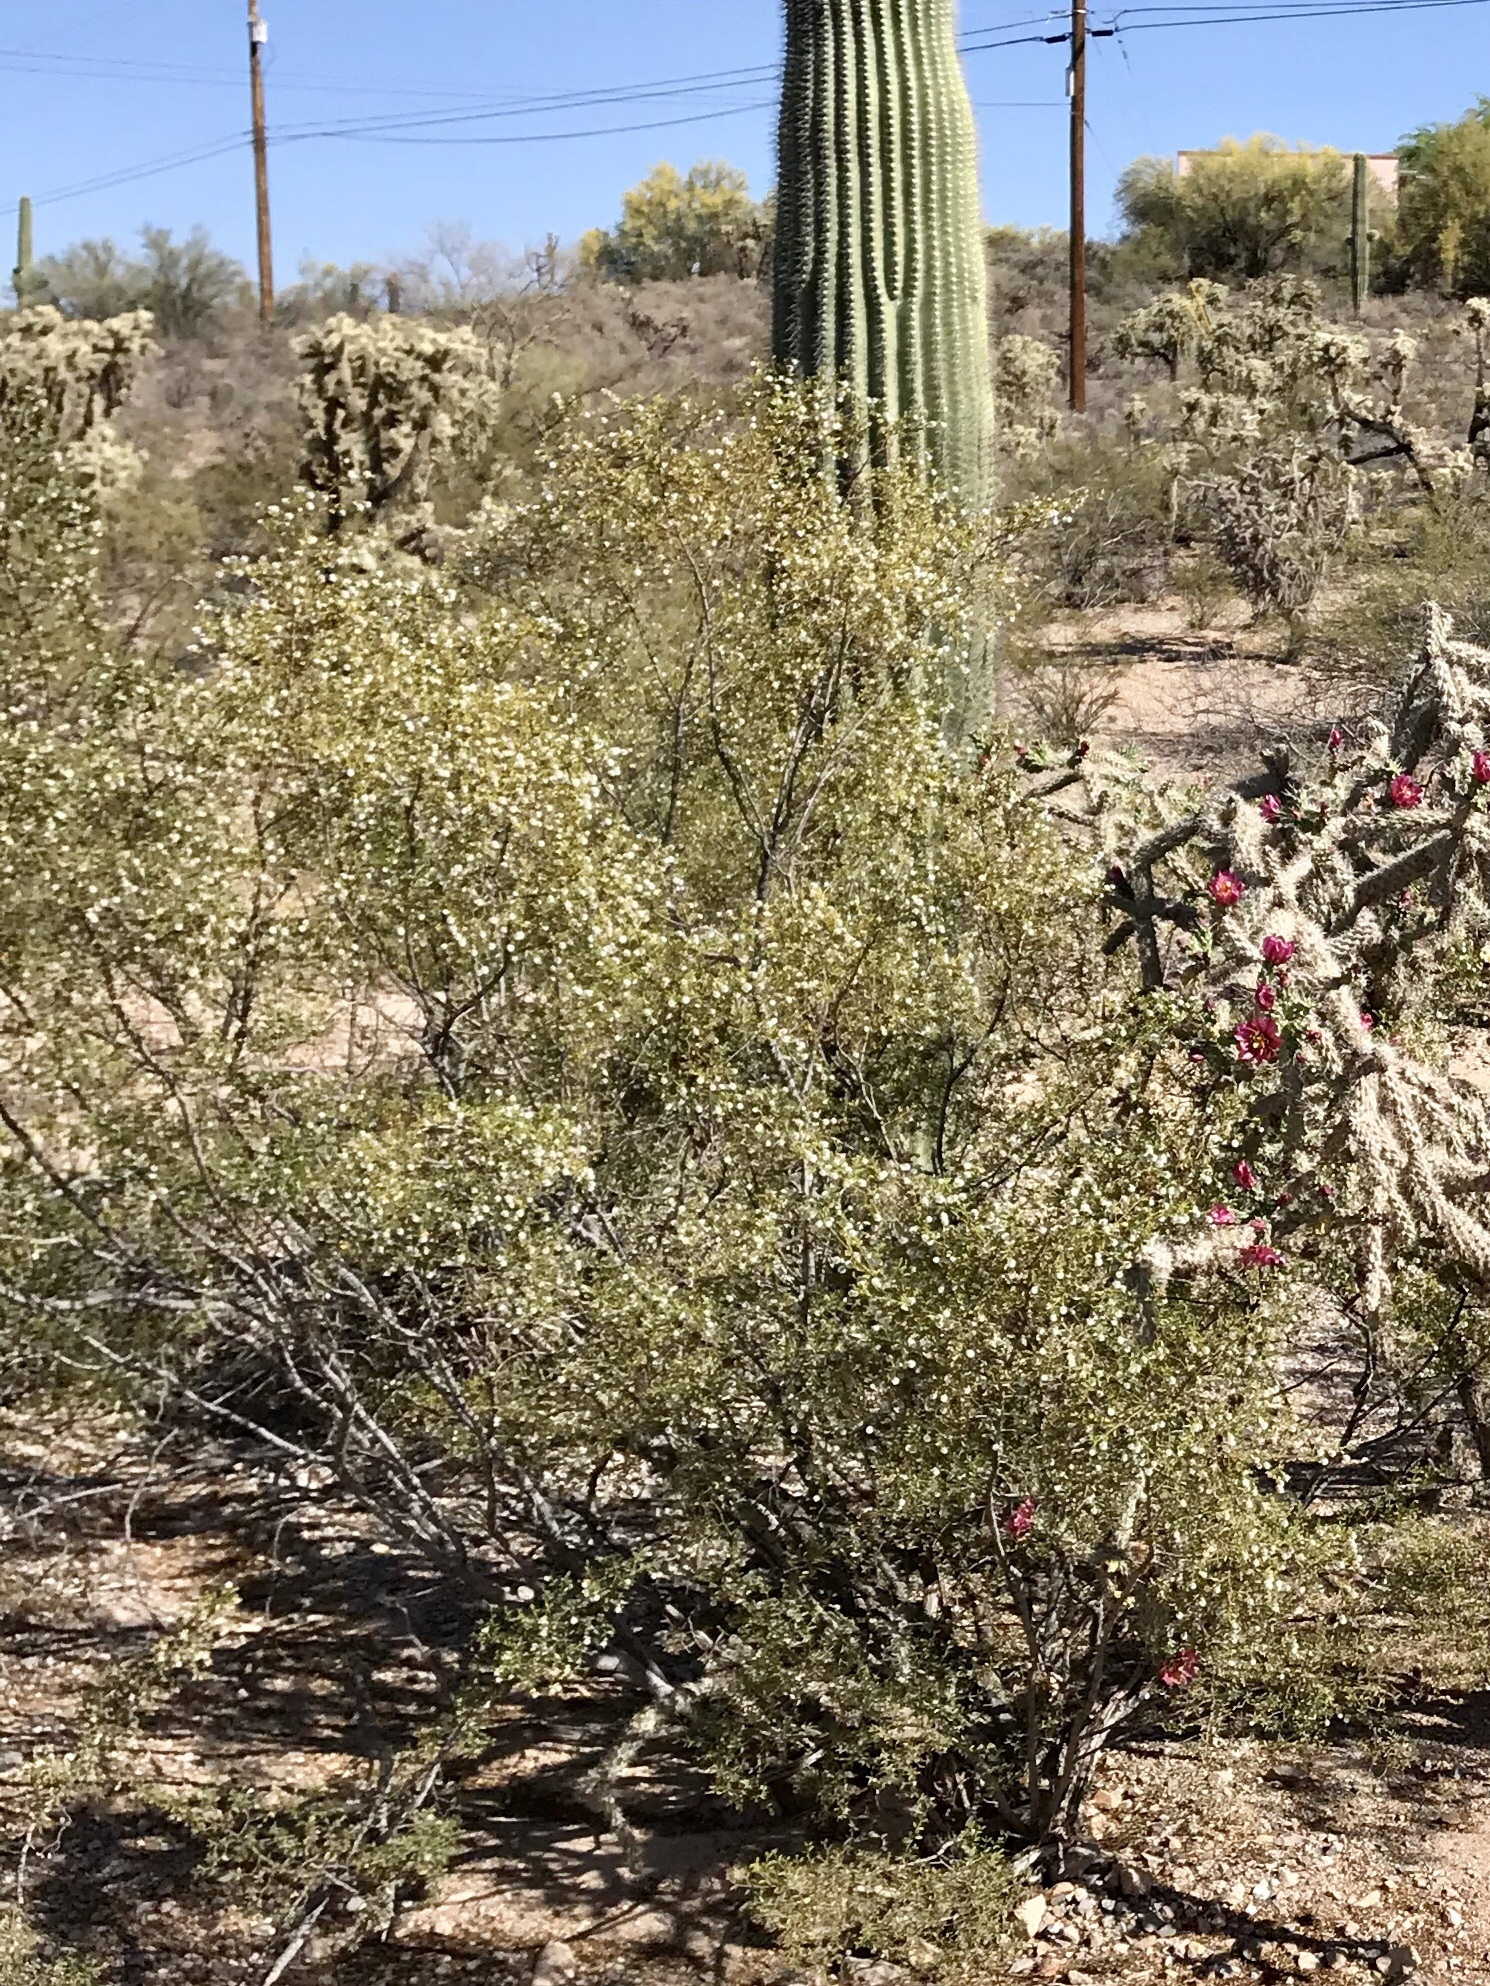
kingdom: Plantae
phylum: Tracheophyta
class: Magnoliopsida
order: Zygophyllales
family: Zygophyllaceae
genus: Larrea
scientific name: Larrea tridentata
